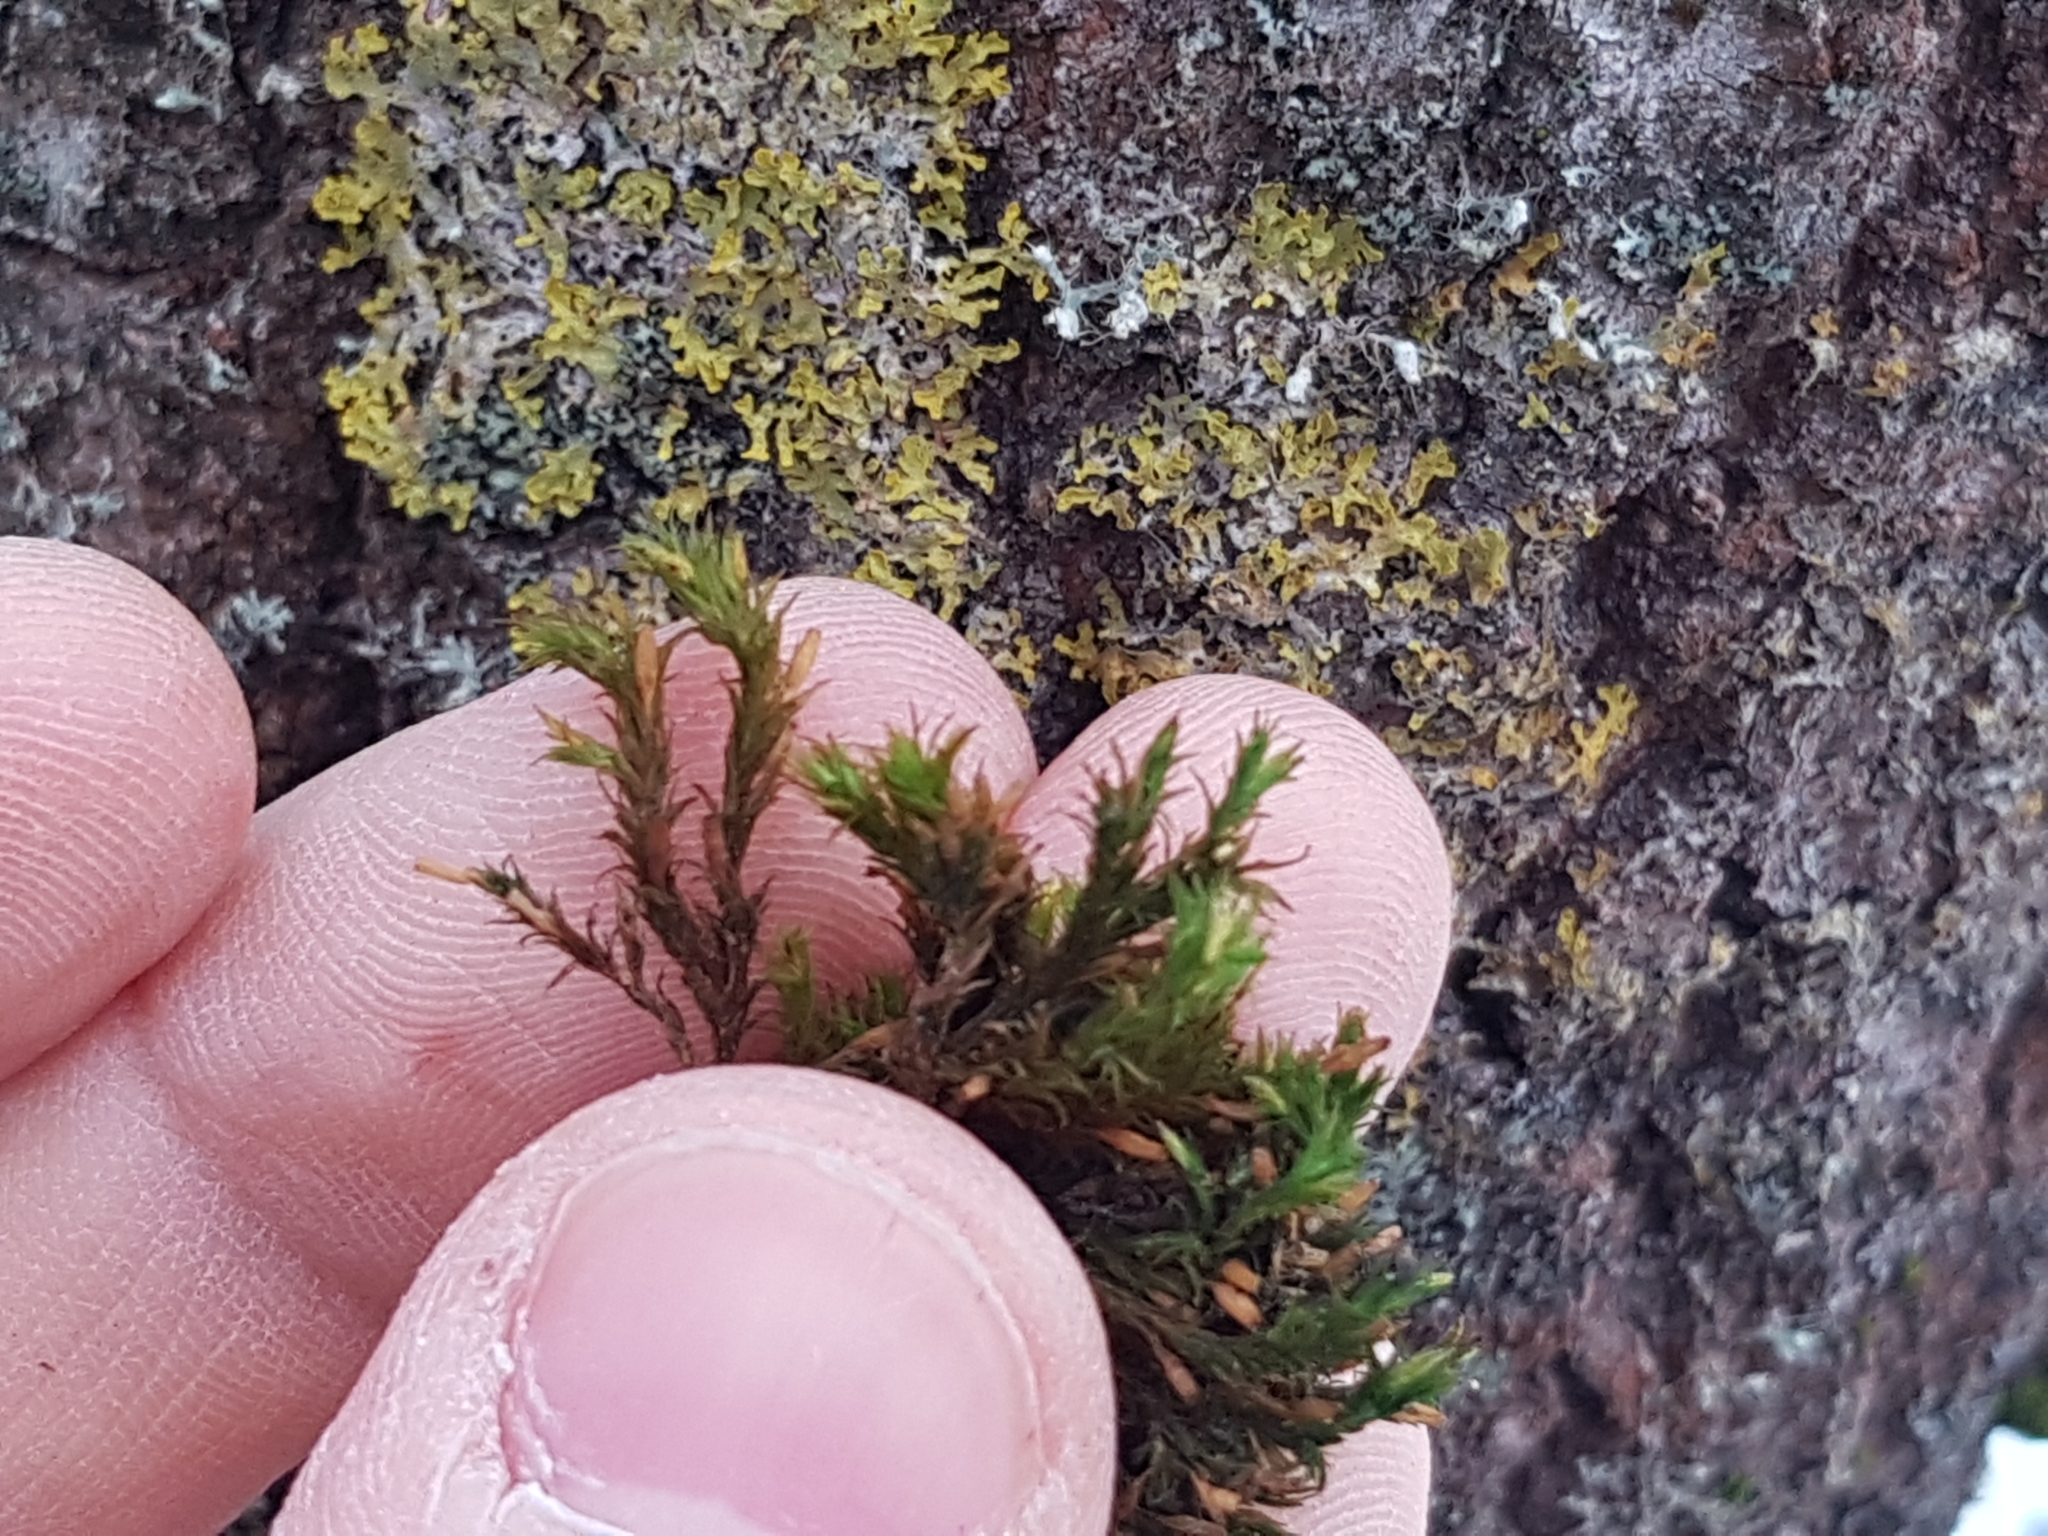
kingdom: Plantae
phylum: Bryophyta
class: Bryopsida
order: Orthotrichales
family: Orthotrichaceae
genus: Lewinskya
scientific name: Lewinskya affinis
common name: Wood bristle-moss
